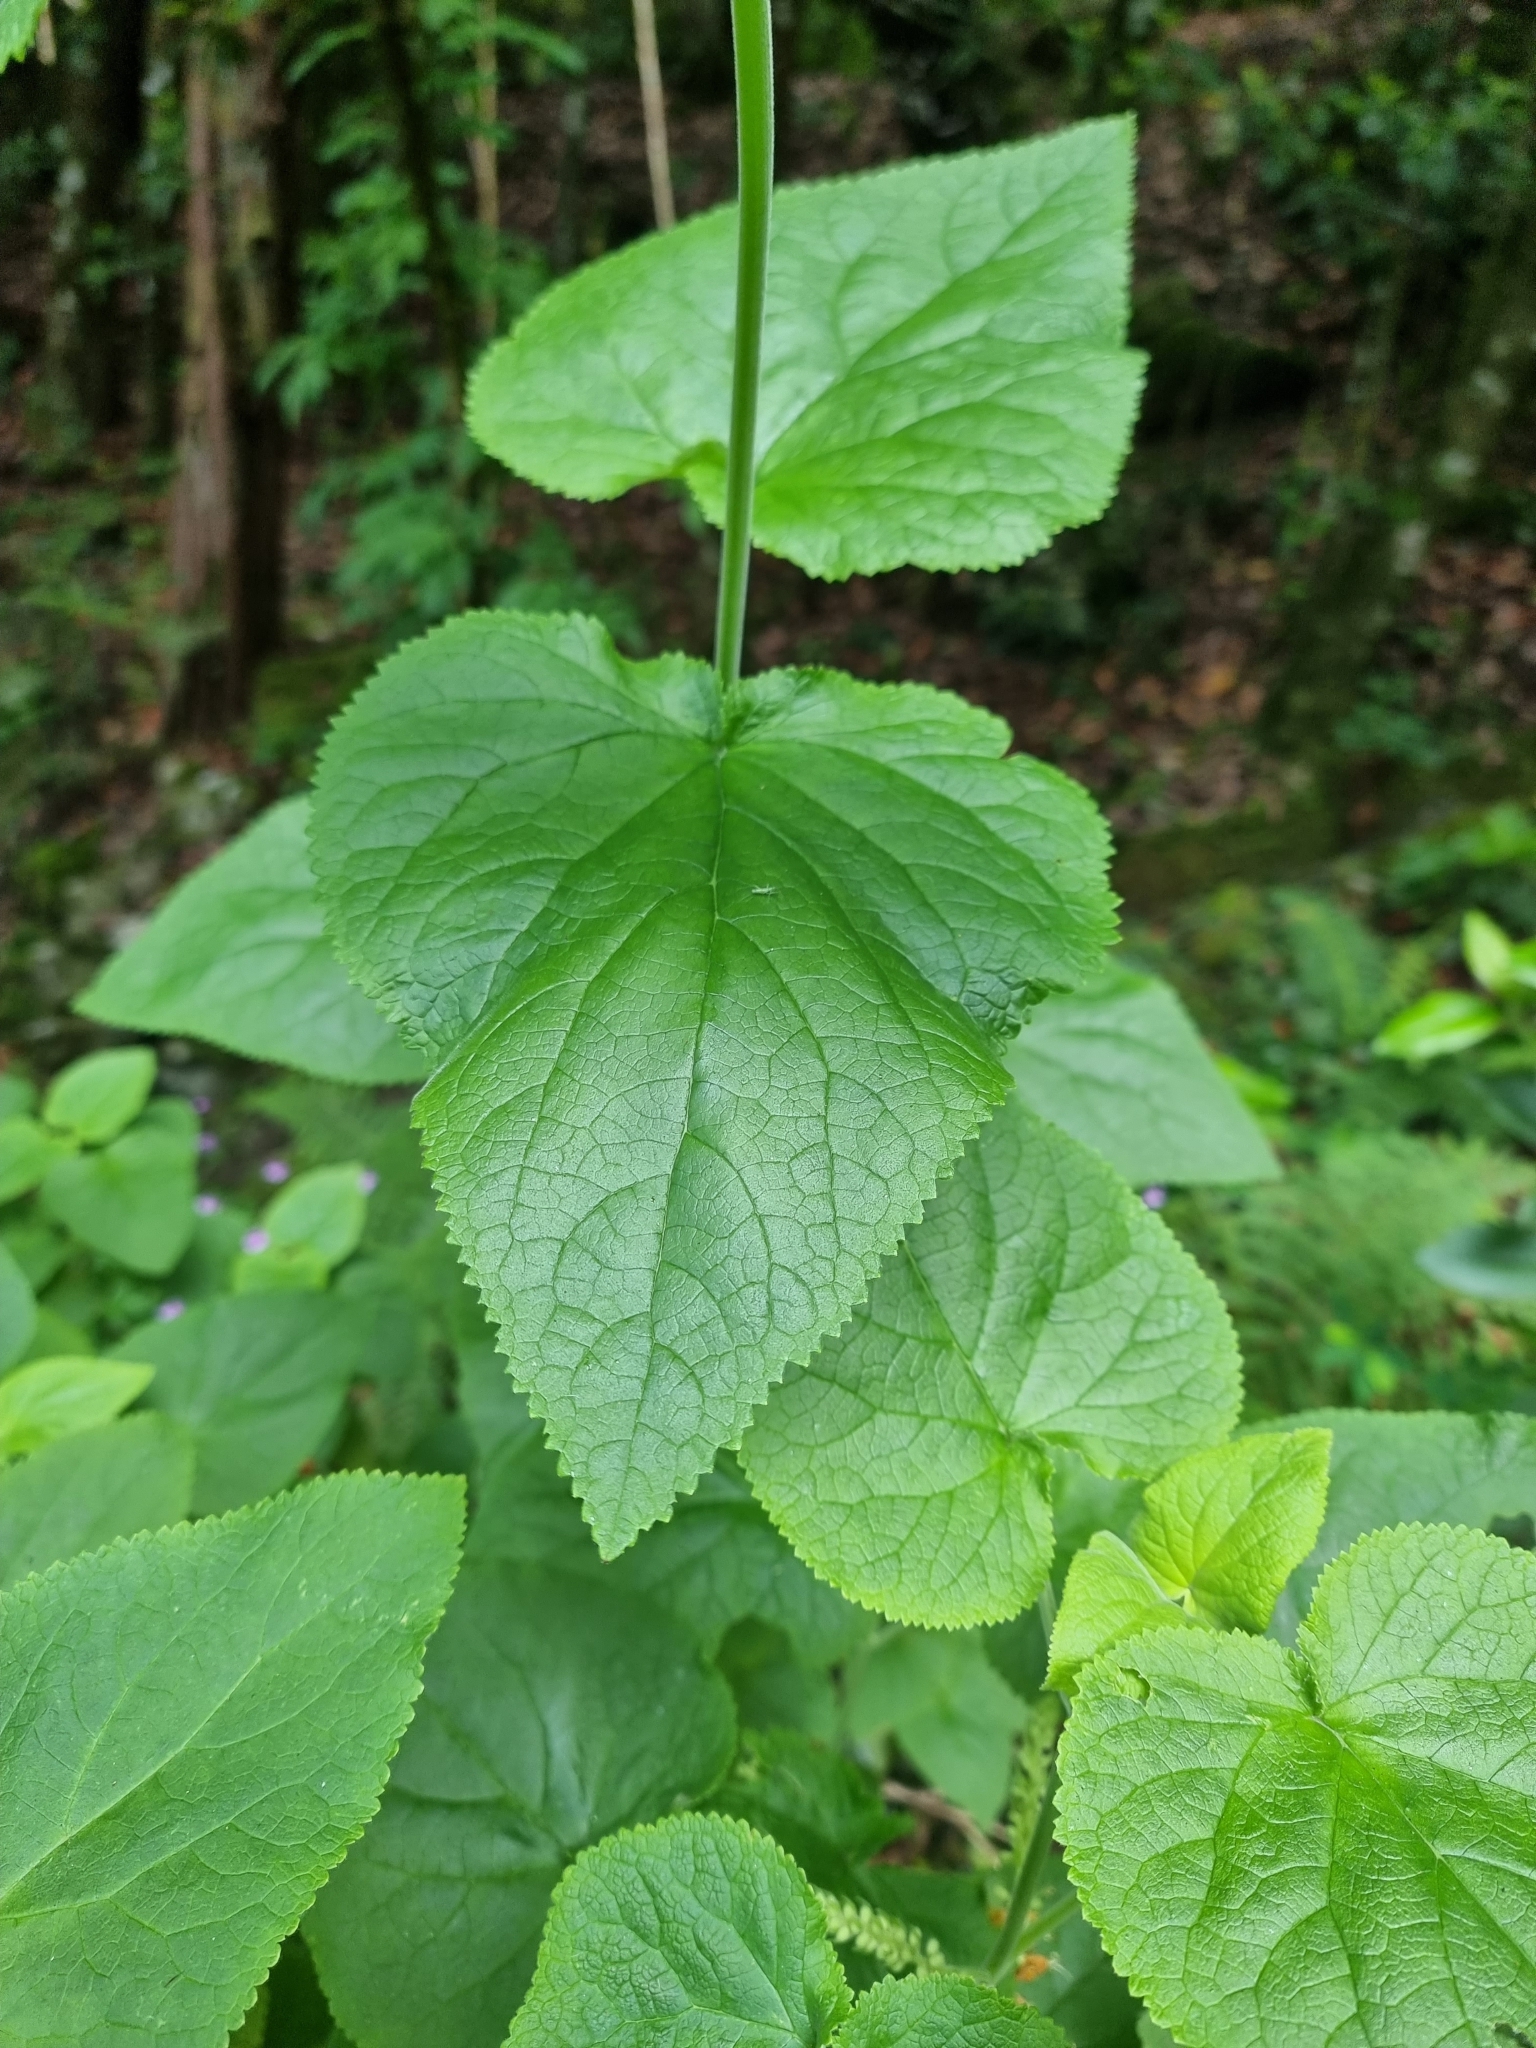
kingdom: Plantae
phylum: Tracheophyta
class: Magnoliopsida
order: Lamiales
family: Lamiaceae
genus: Teucrium
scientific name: Teucrium abutiloides
